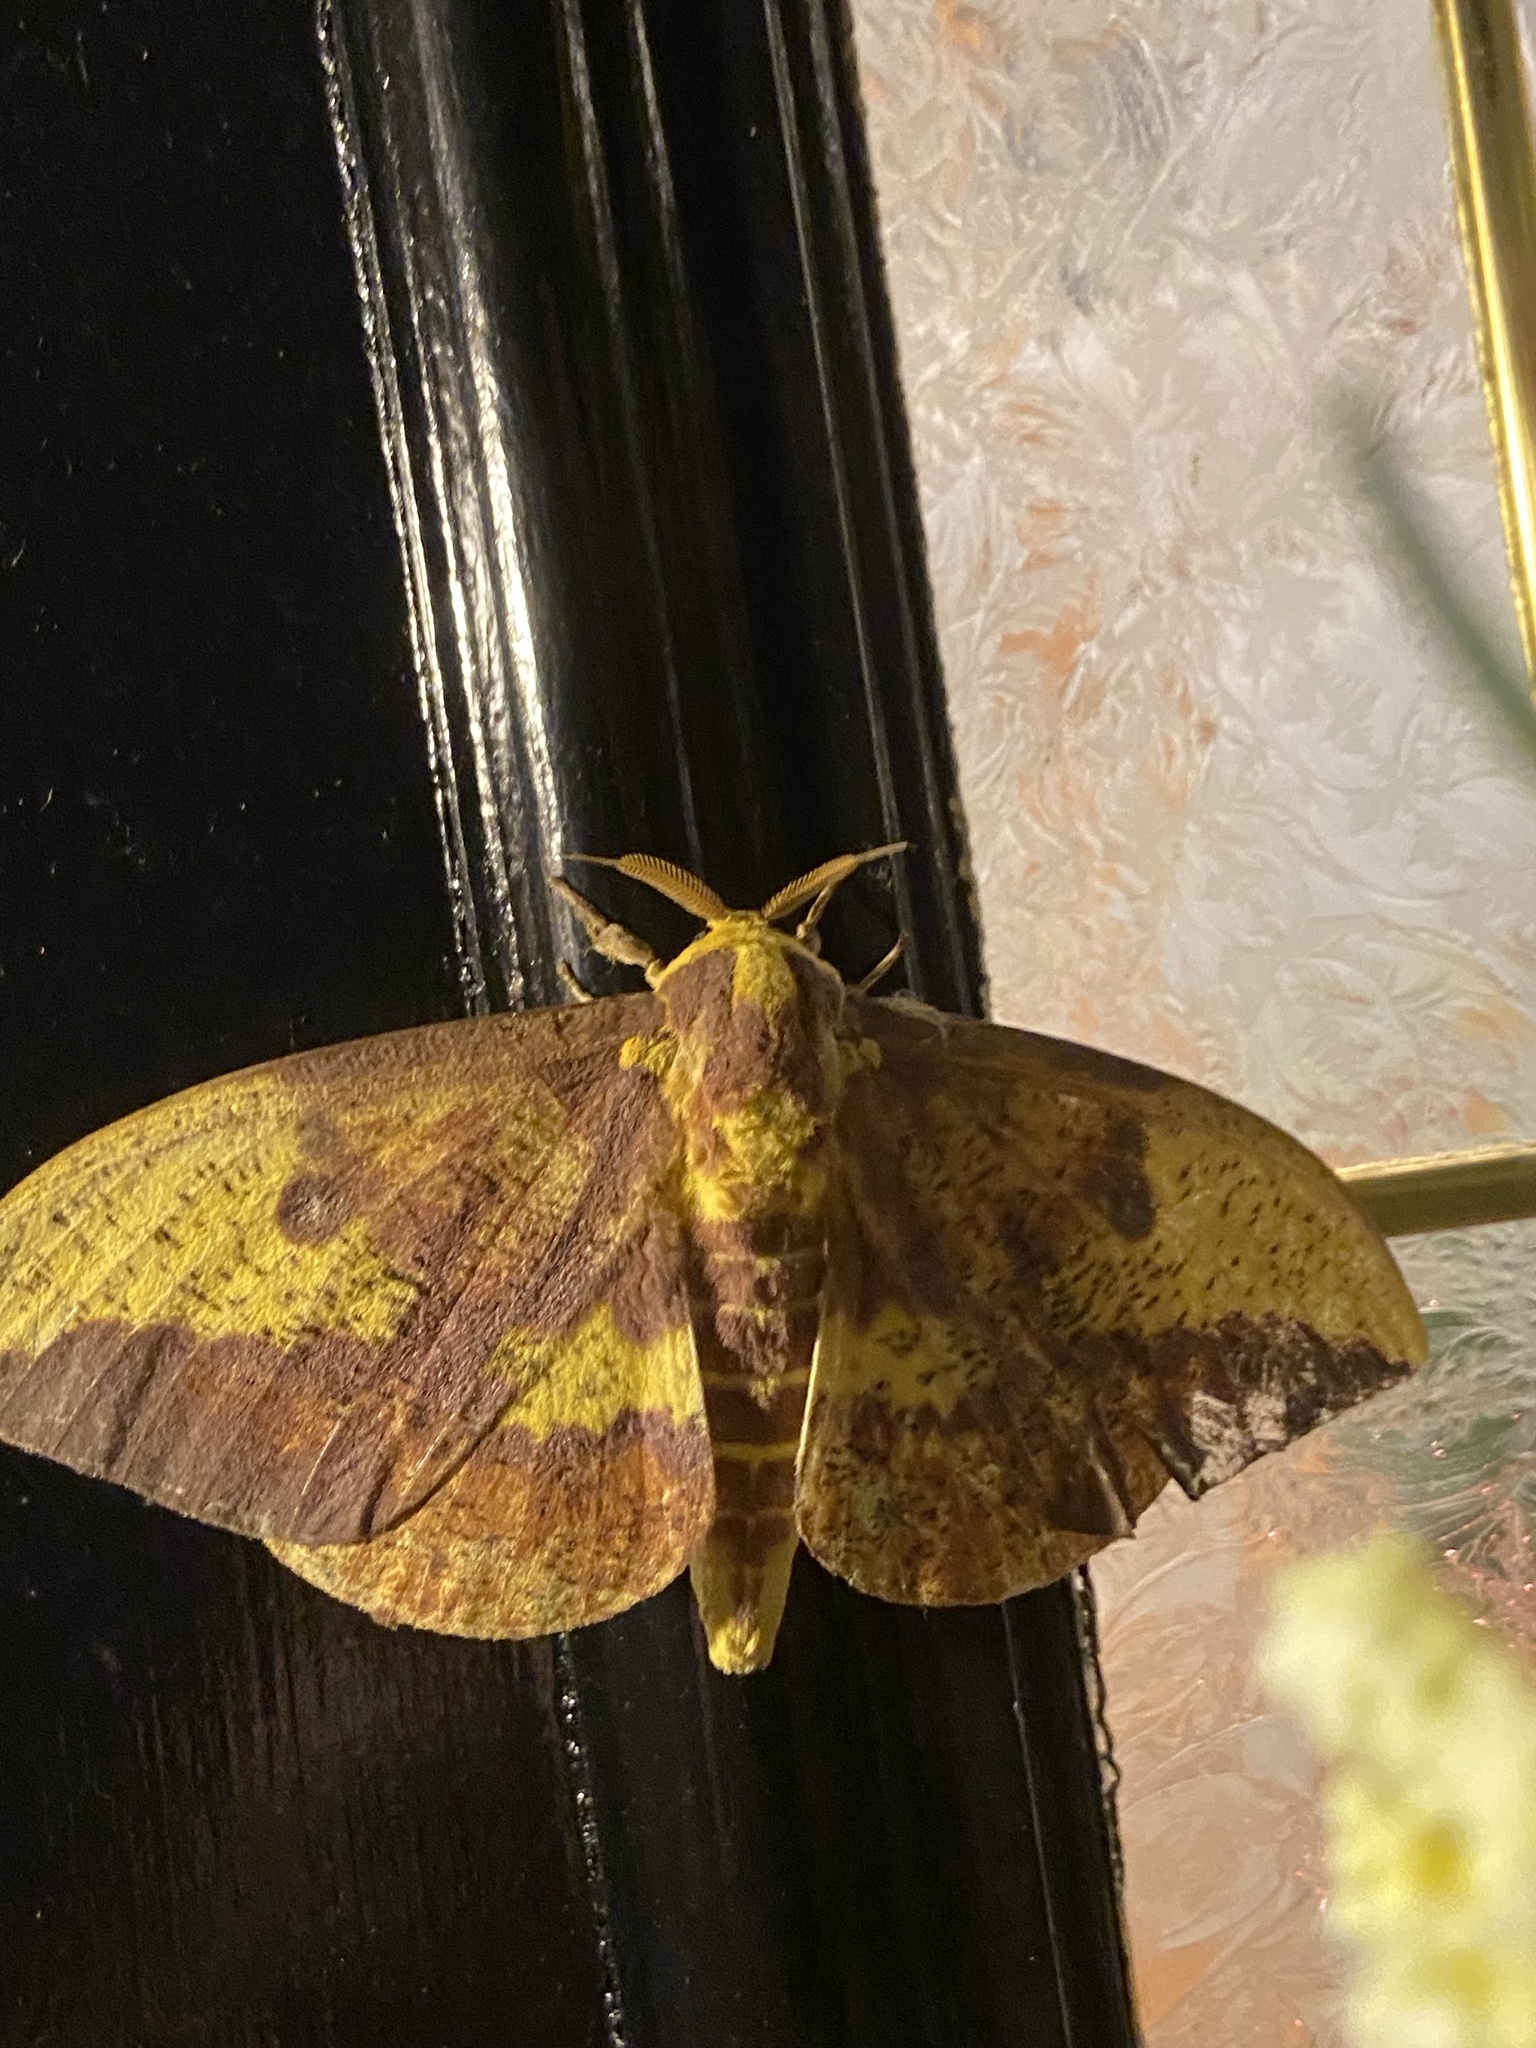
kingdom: Animalia
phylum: Arthropoda
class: Insecta
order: Lepidoptera
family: Saturniidae
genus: Eacles
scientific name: Eacles imperialis
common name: Imperial moth
